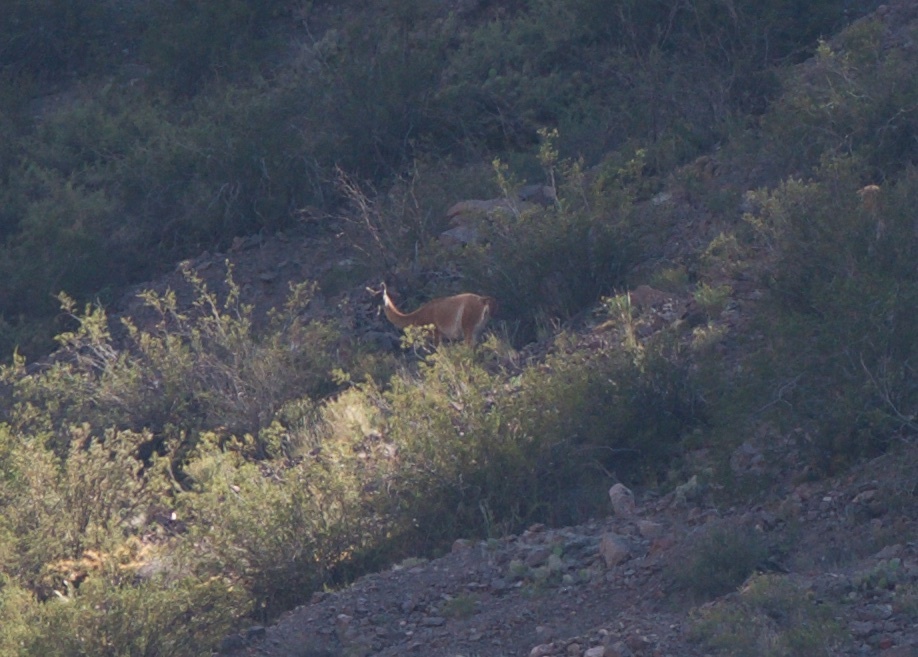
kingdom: Animalia
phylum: Chordata
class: Mammalia
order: Artiodactyla
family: Camelidae
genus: Lama
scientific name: Lama glama
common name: Llama
